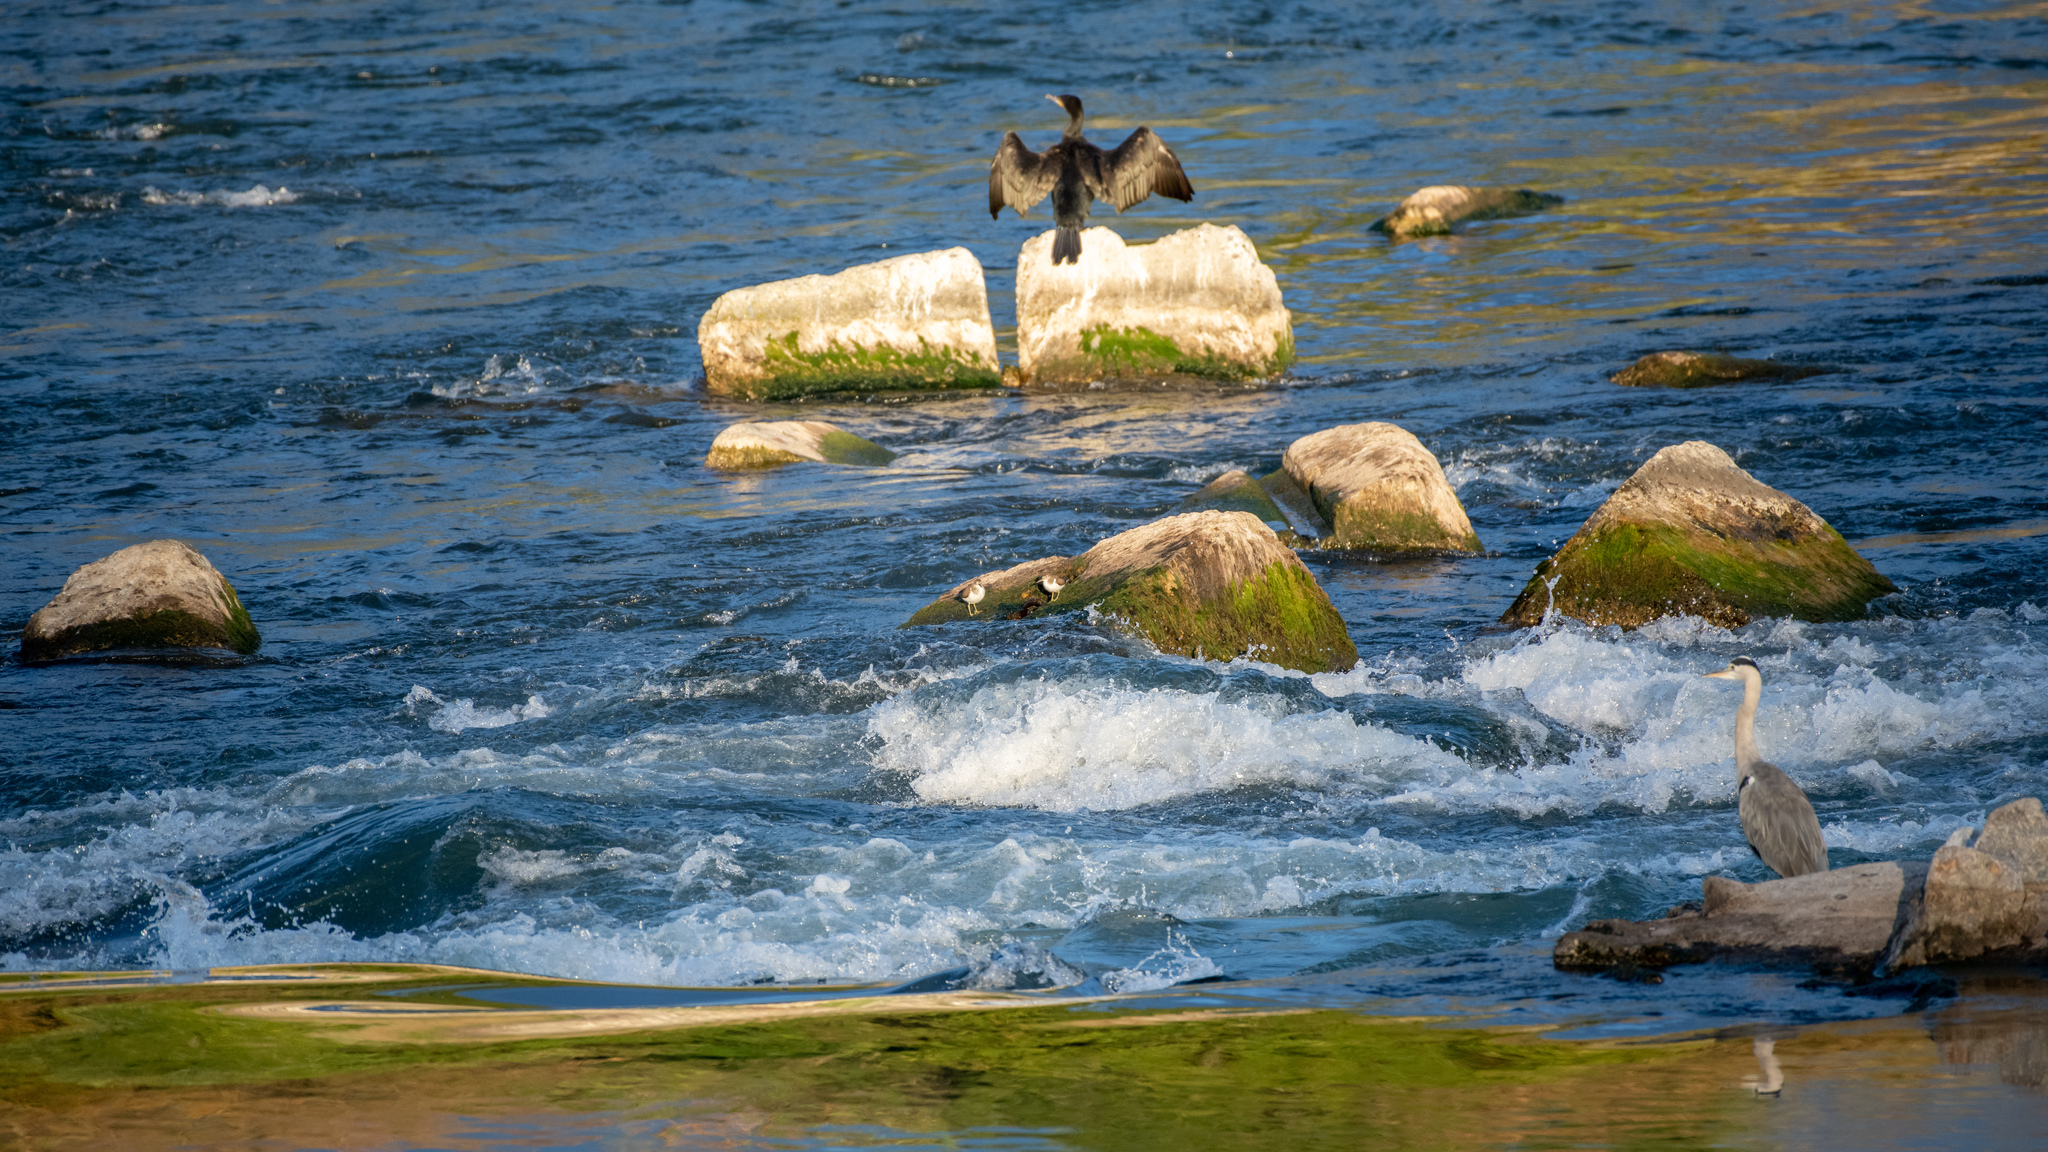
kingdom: Animalia
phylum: Chordata
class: Aves
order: Charadriiformes
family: Scolopacidae
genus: Actitis
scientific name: Actitis hypoleucos
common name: Common sandpiper
